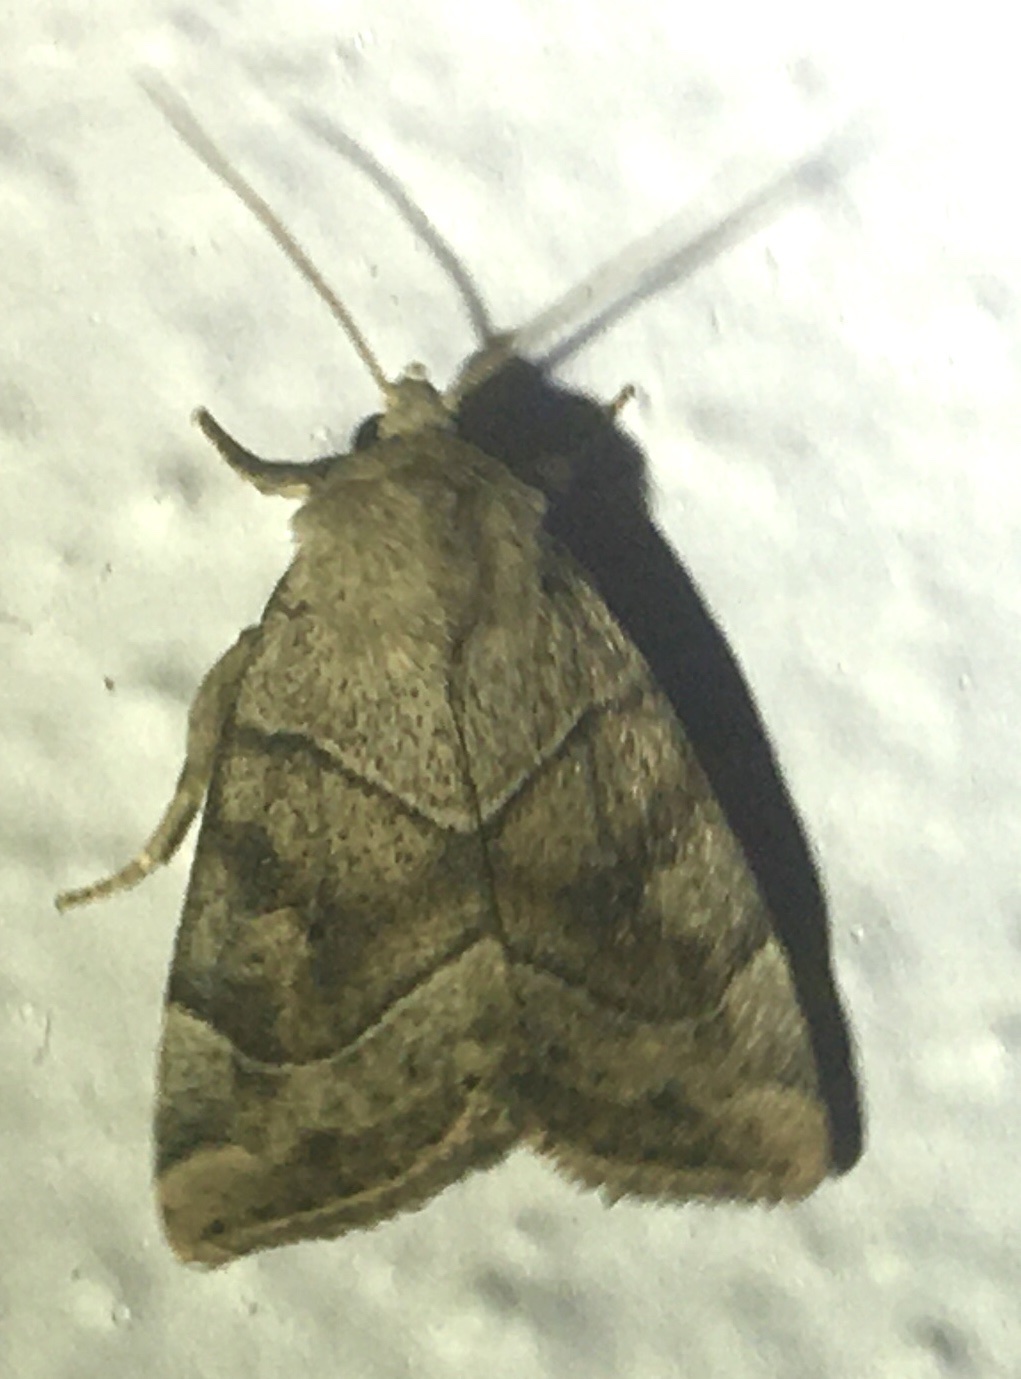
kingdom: Animalia
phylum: Arthropoda
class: Insecta
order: Lepidoptera
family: Noctuidae
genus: Cosmia
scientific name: Cosmia trapezina
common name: Dun-bar
